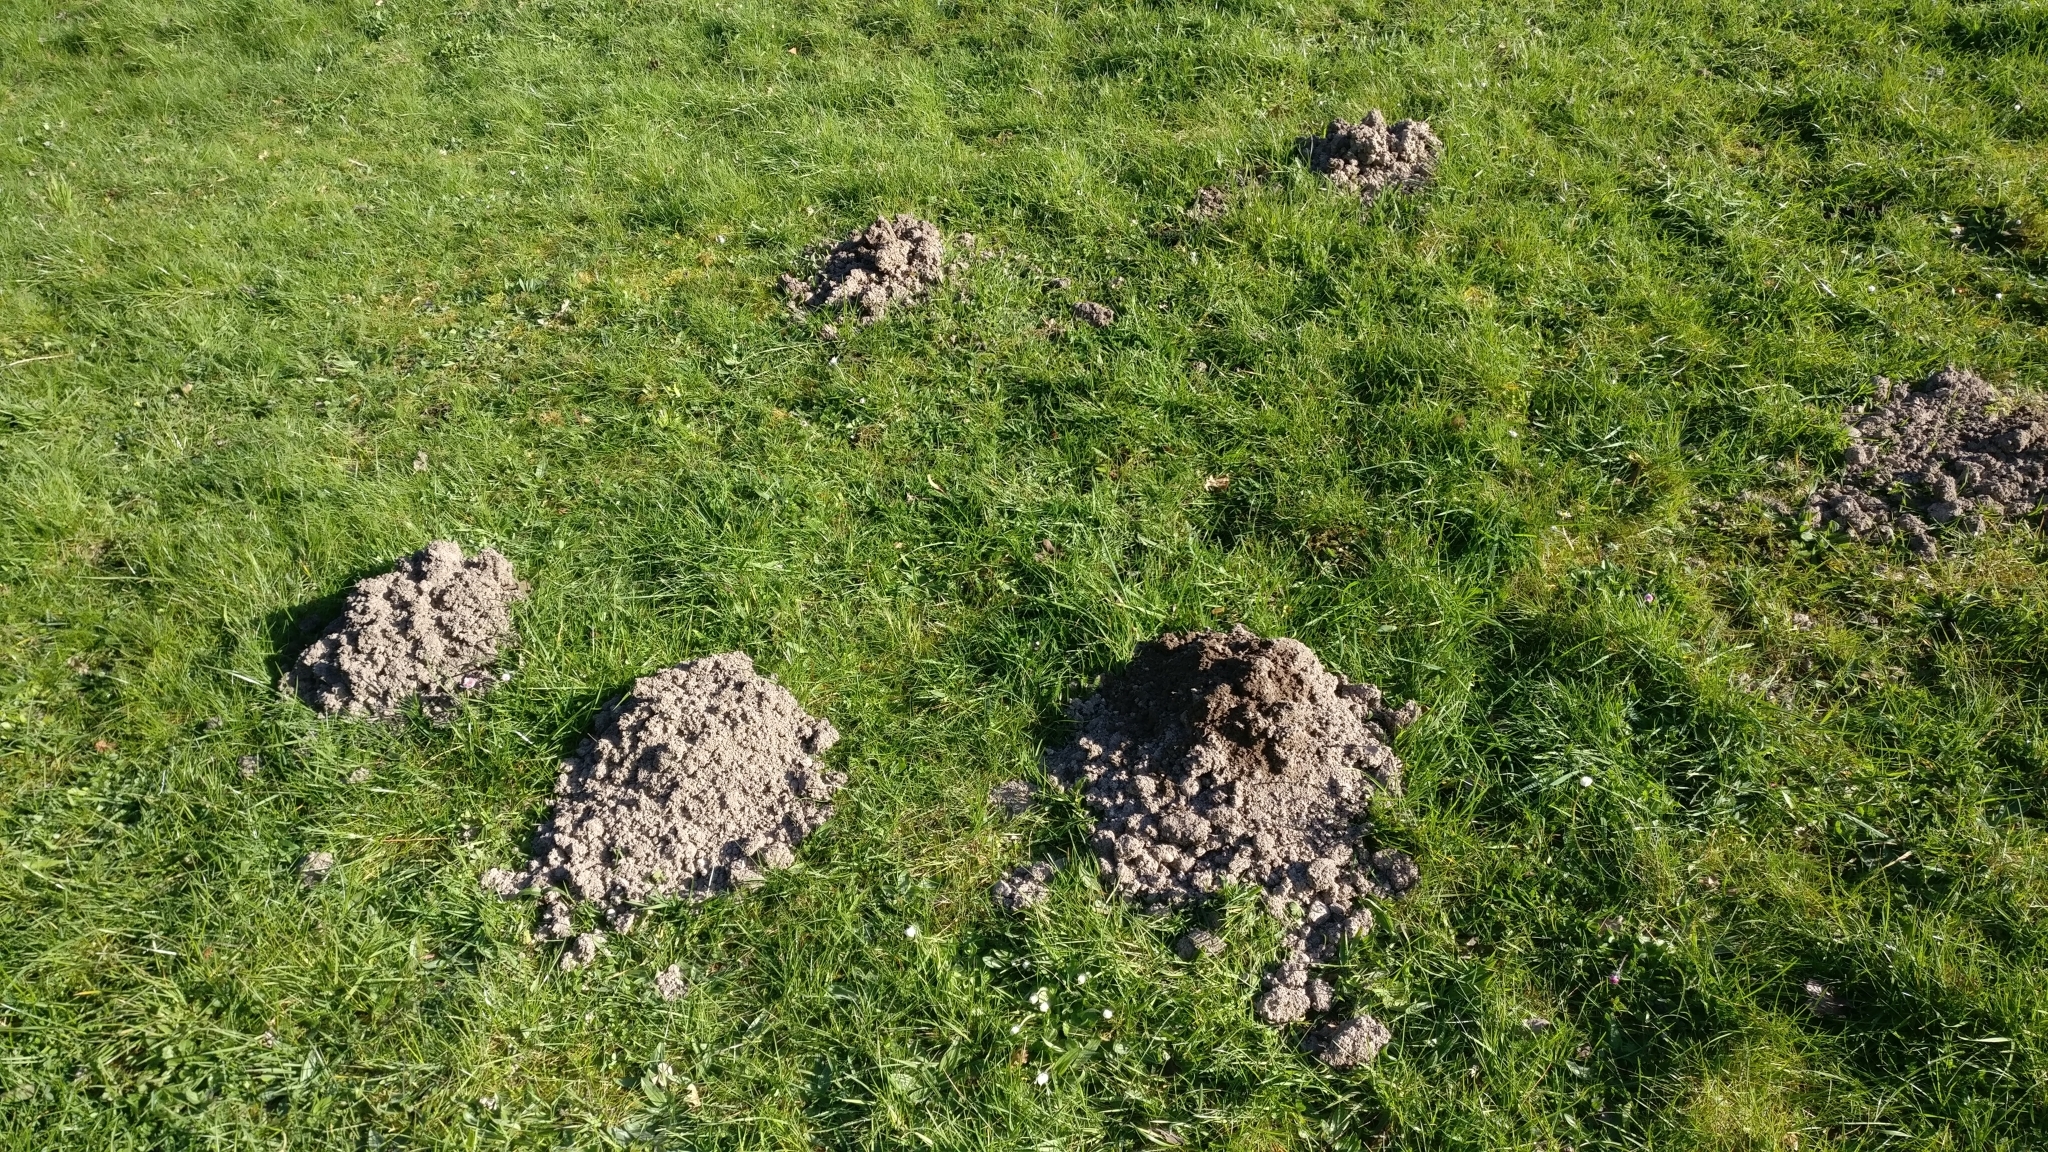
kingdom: Animalia
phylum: Chordata
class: Mammalia
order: Soricomorpha
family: Talpidae
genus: Talpa
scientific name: Talpa europaea
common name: European mole
